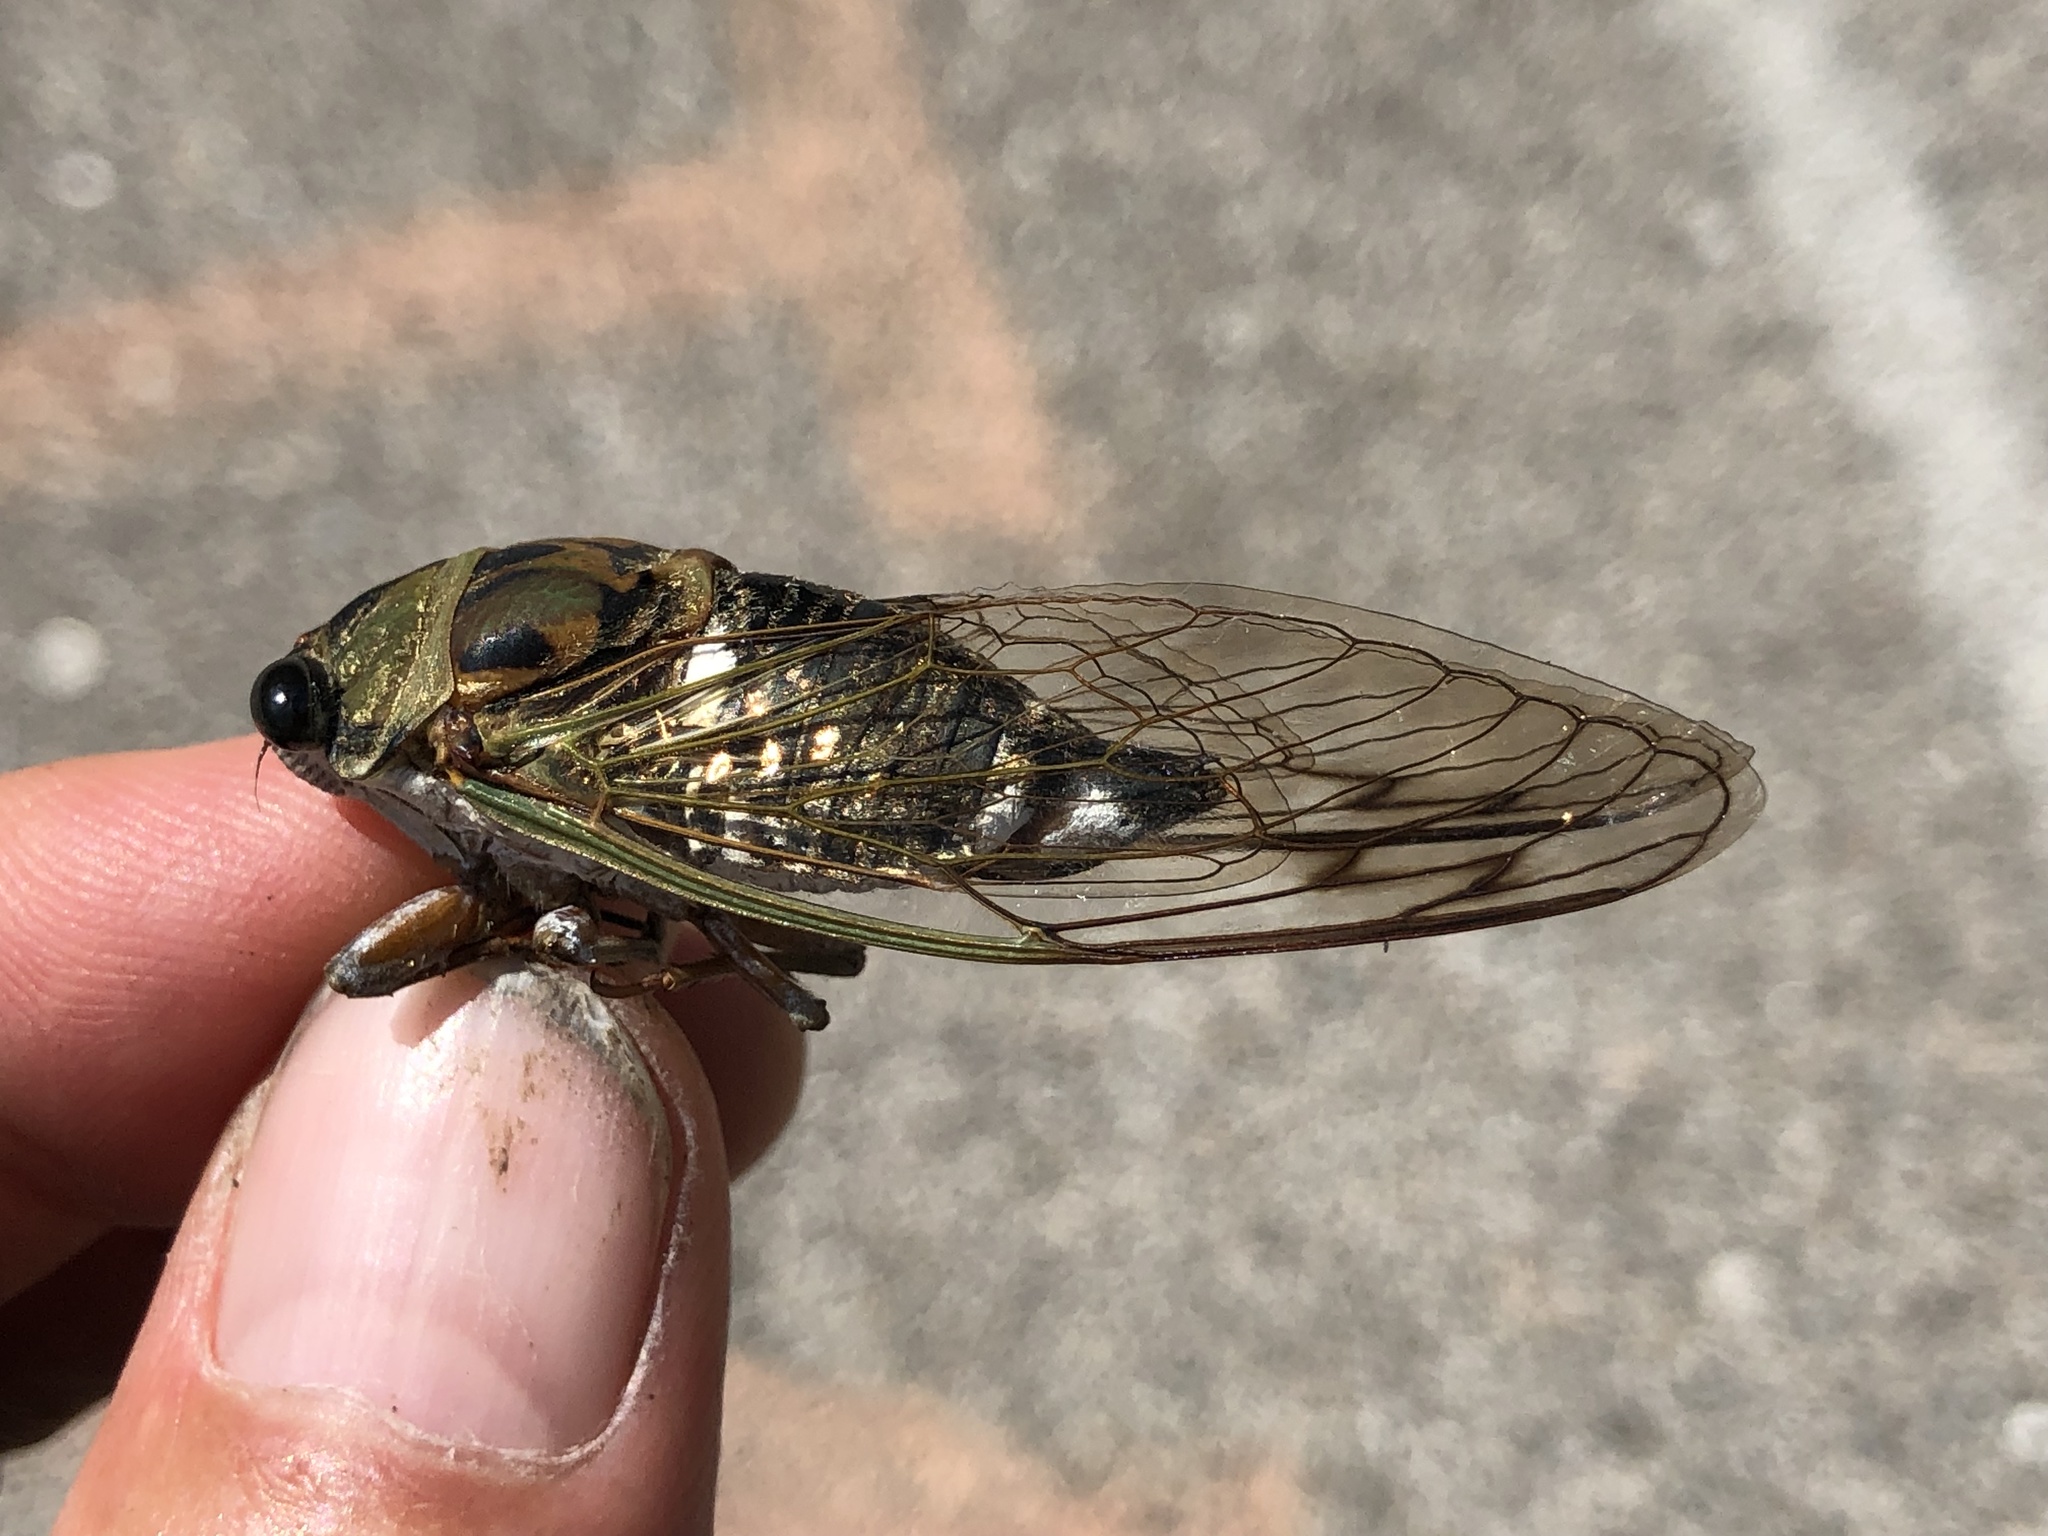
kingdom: Animalia
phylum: Arthropoda
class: Insecta
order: Hemiptera
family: Cicadidae
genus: Neotibicen
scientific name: Neotibicen pruinosus
